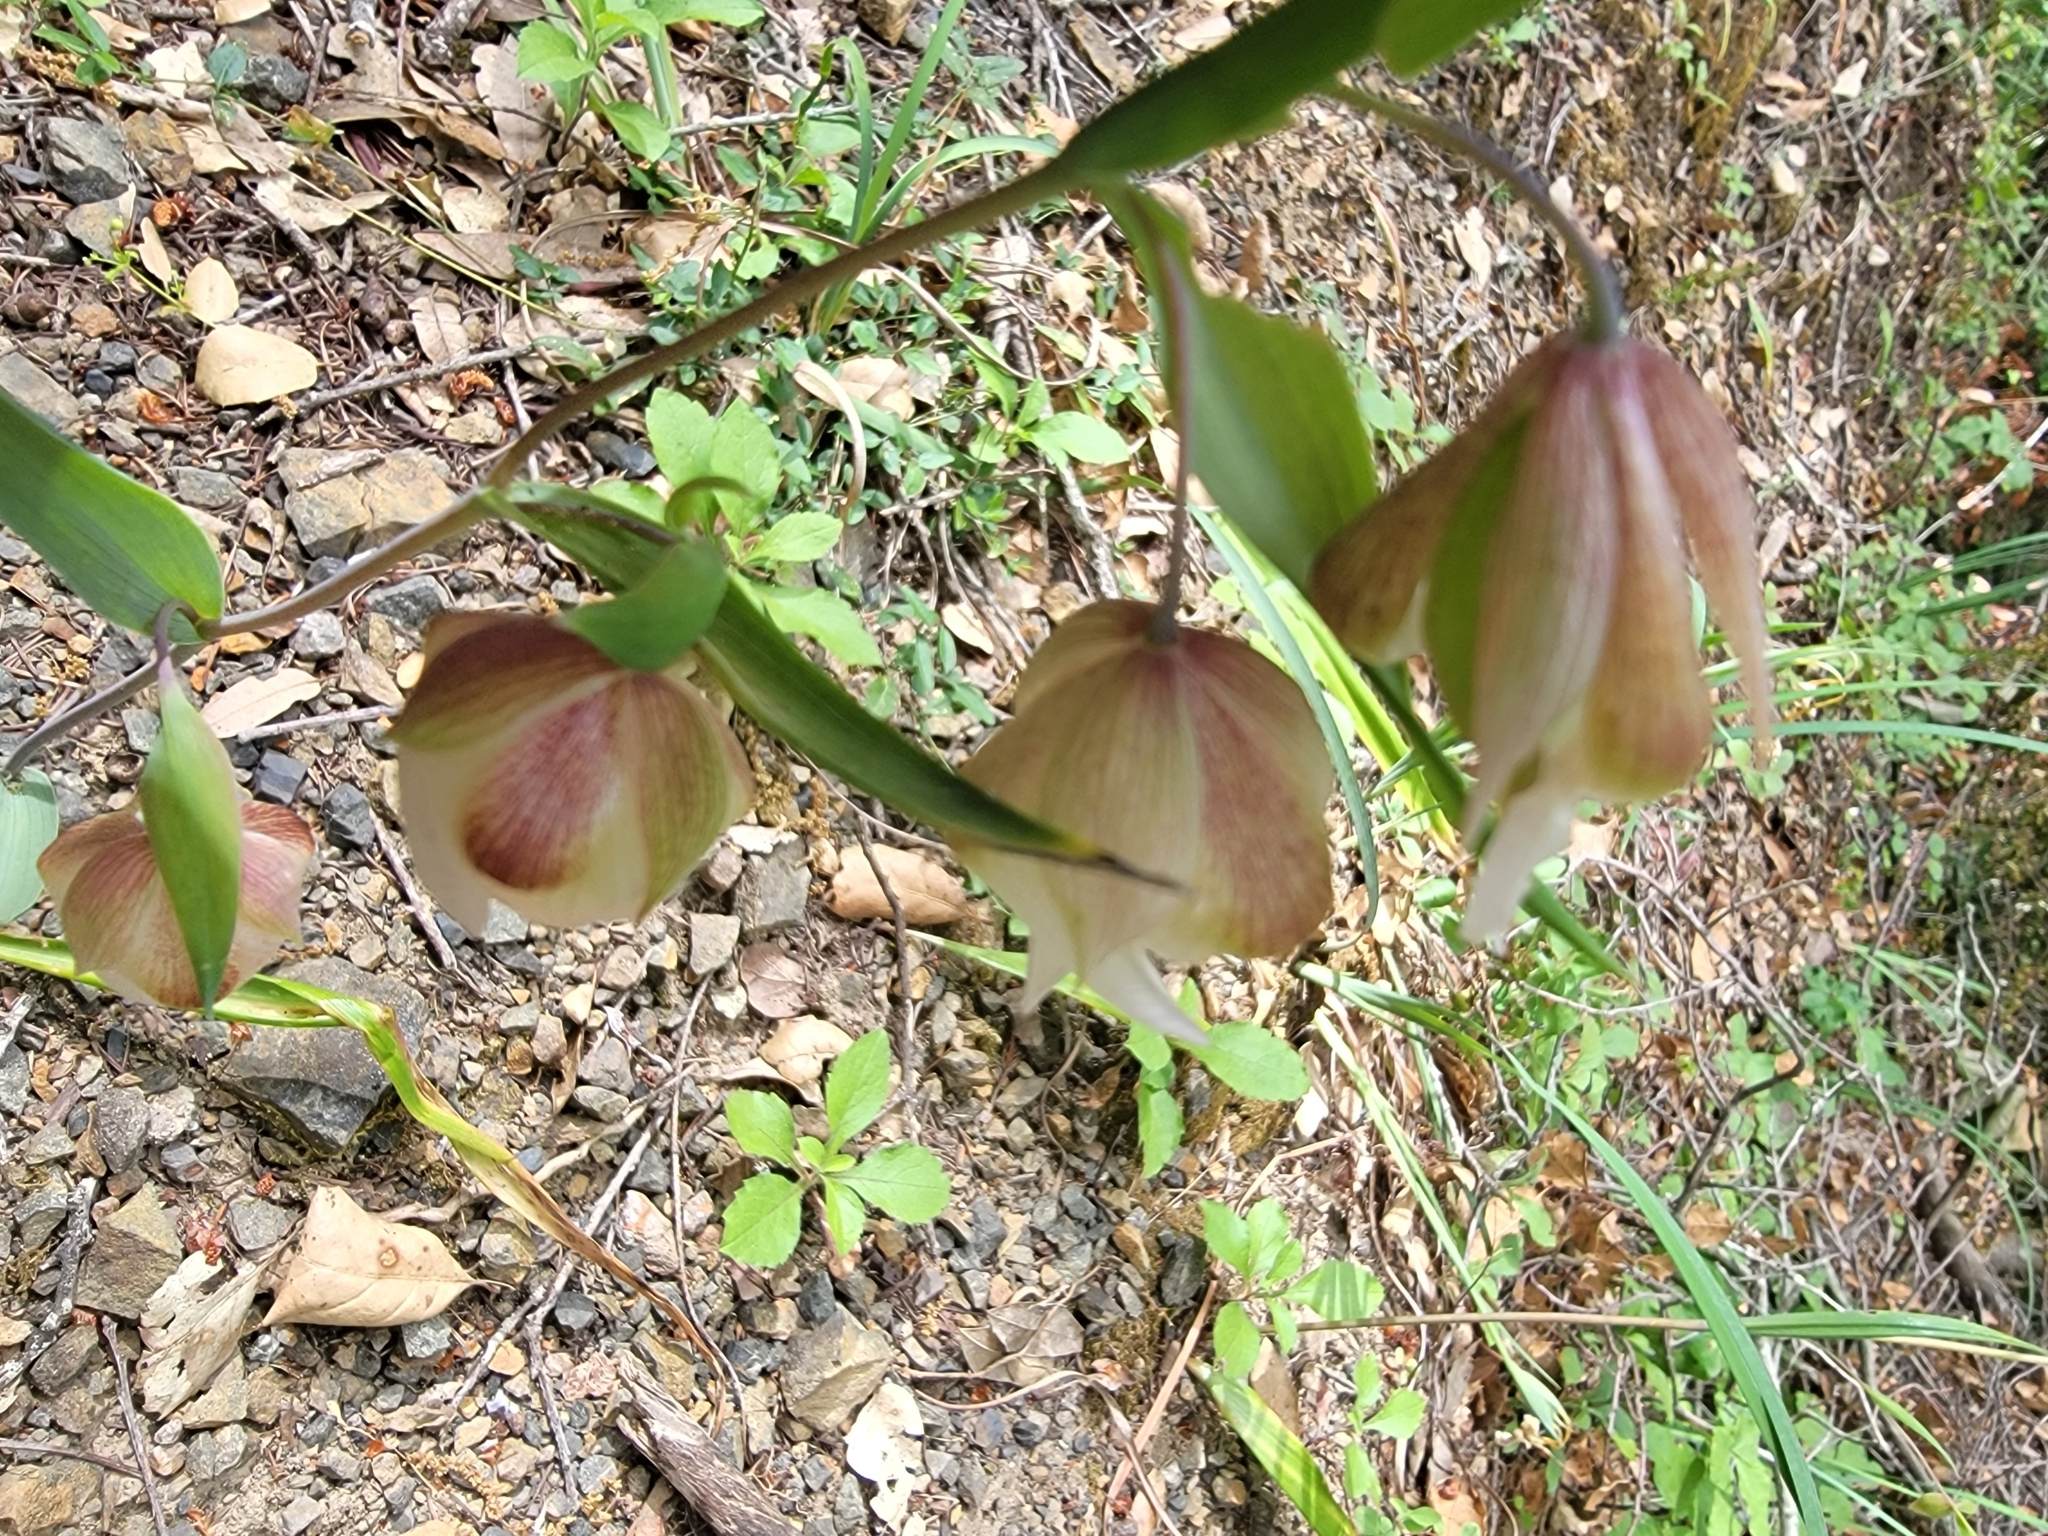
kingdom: Plantae
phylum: Tracheophyta
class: Liliopsida
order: Liliales
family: Liliaceae
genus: Calochortus
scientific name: Calochortus albus
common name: Fairy-lantern
